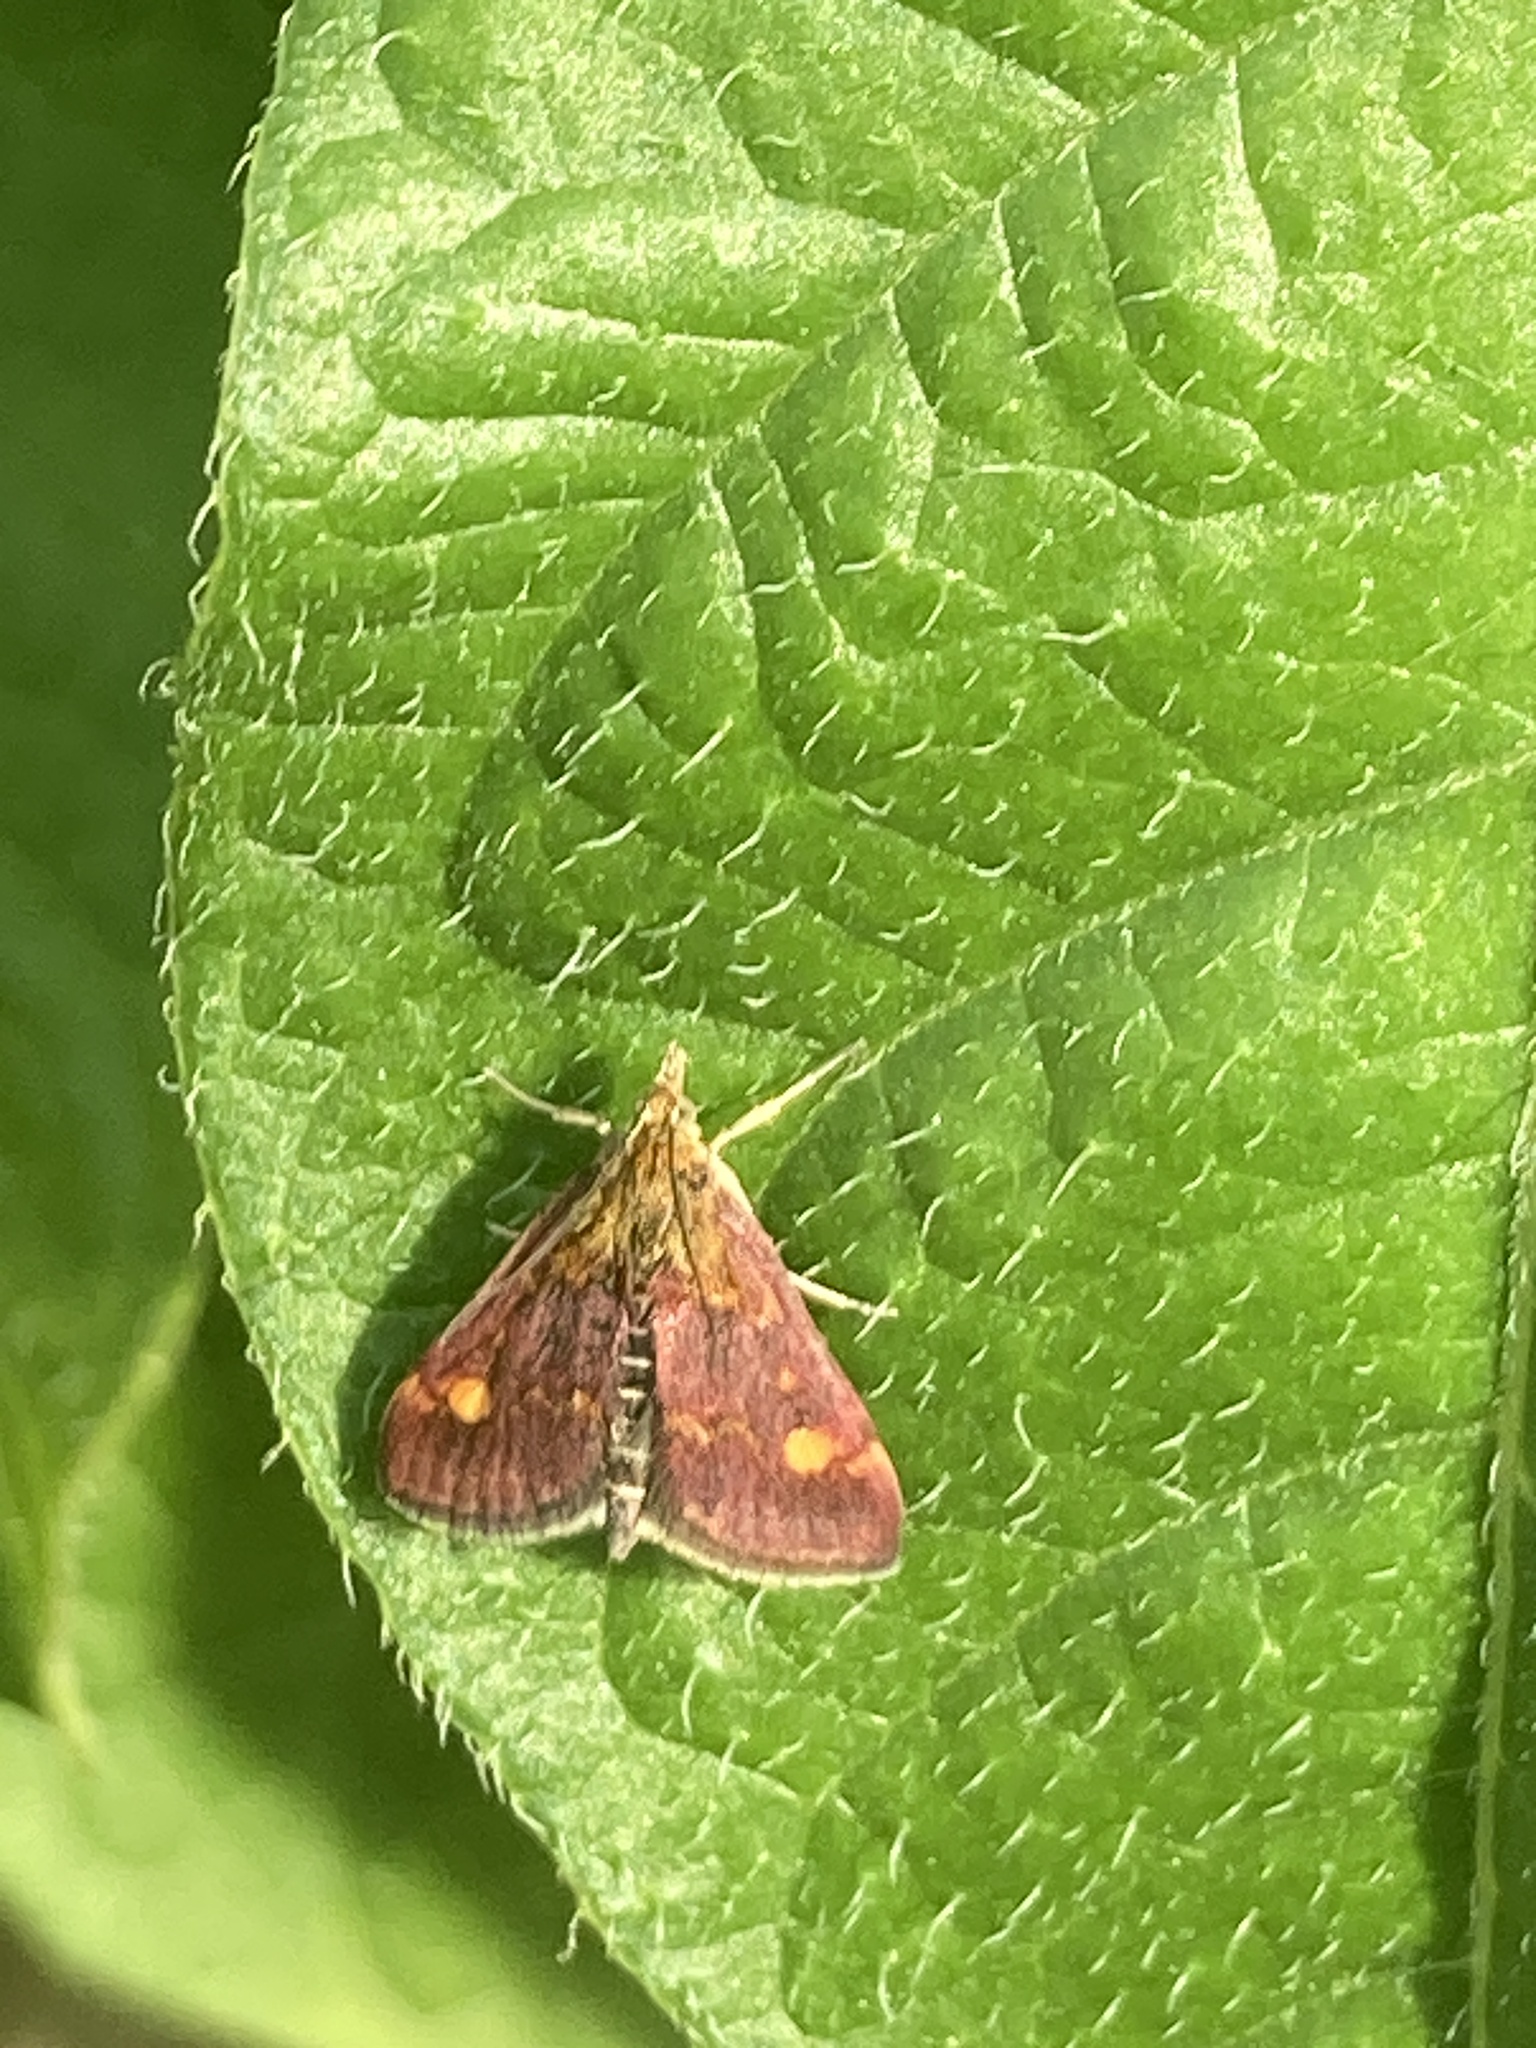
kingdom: Animalia
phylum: Arthropoda
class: Insecta
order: Lepidoptera
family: Crambidae
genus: Pyrausta
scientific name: Pyrausta aurata
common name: Small purple & gold
